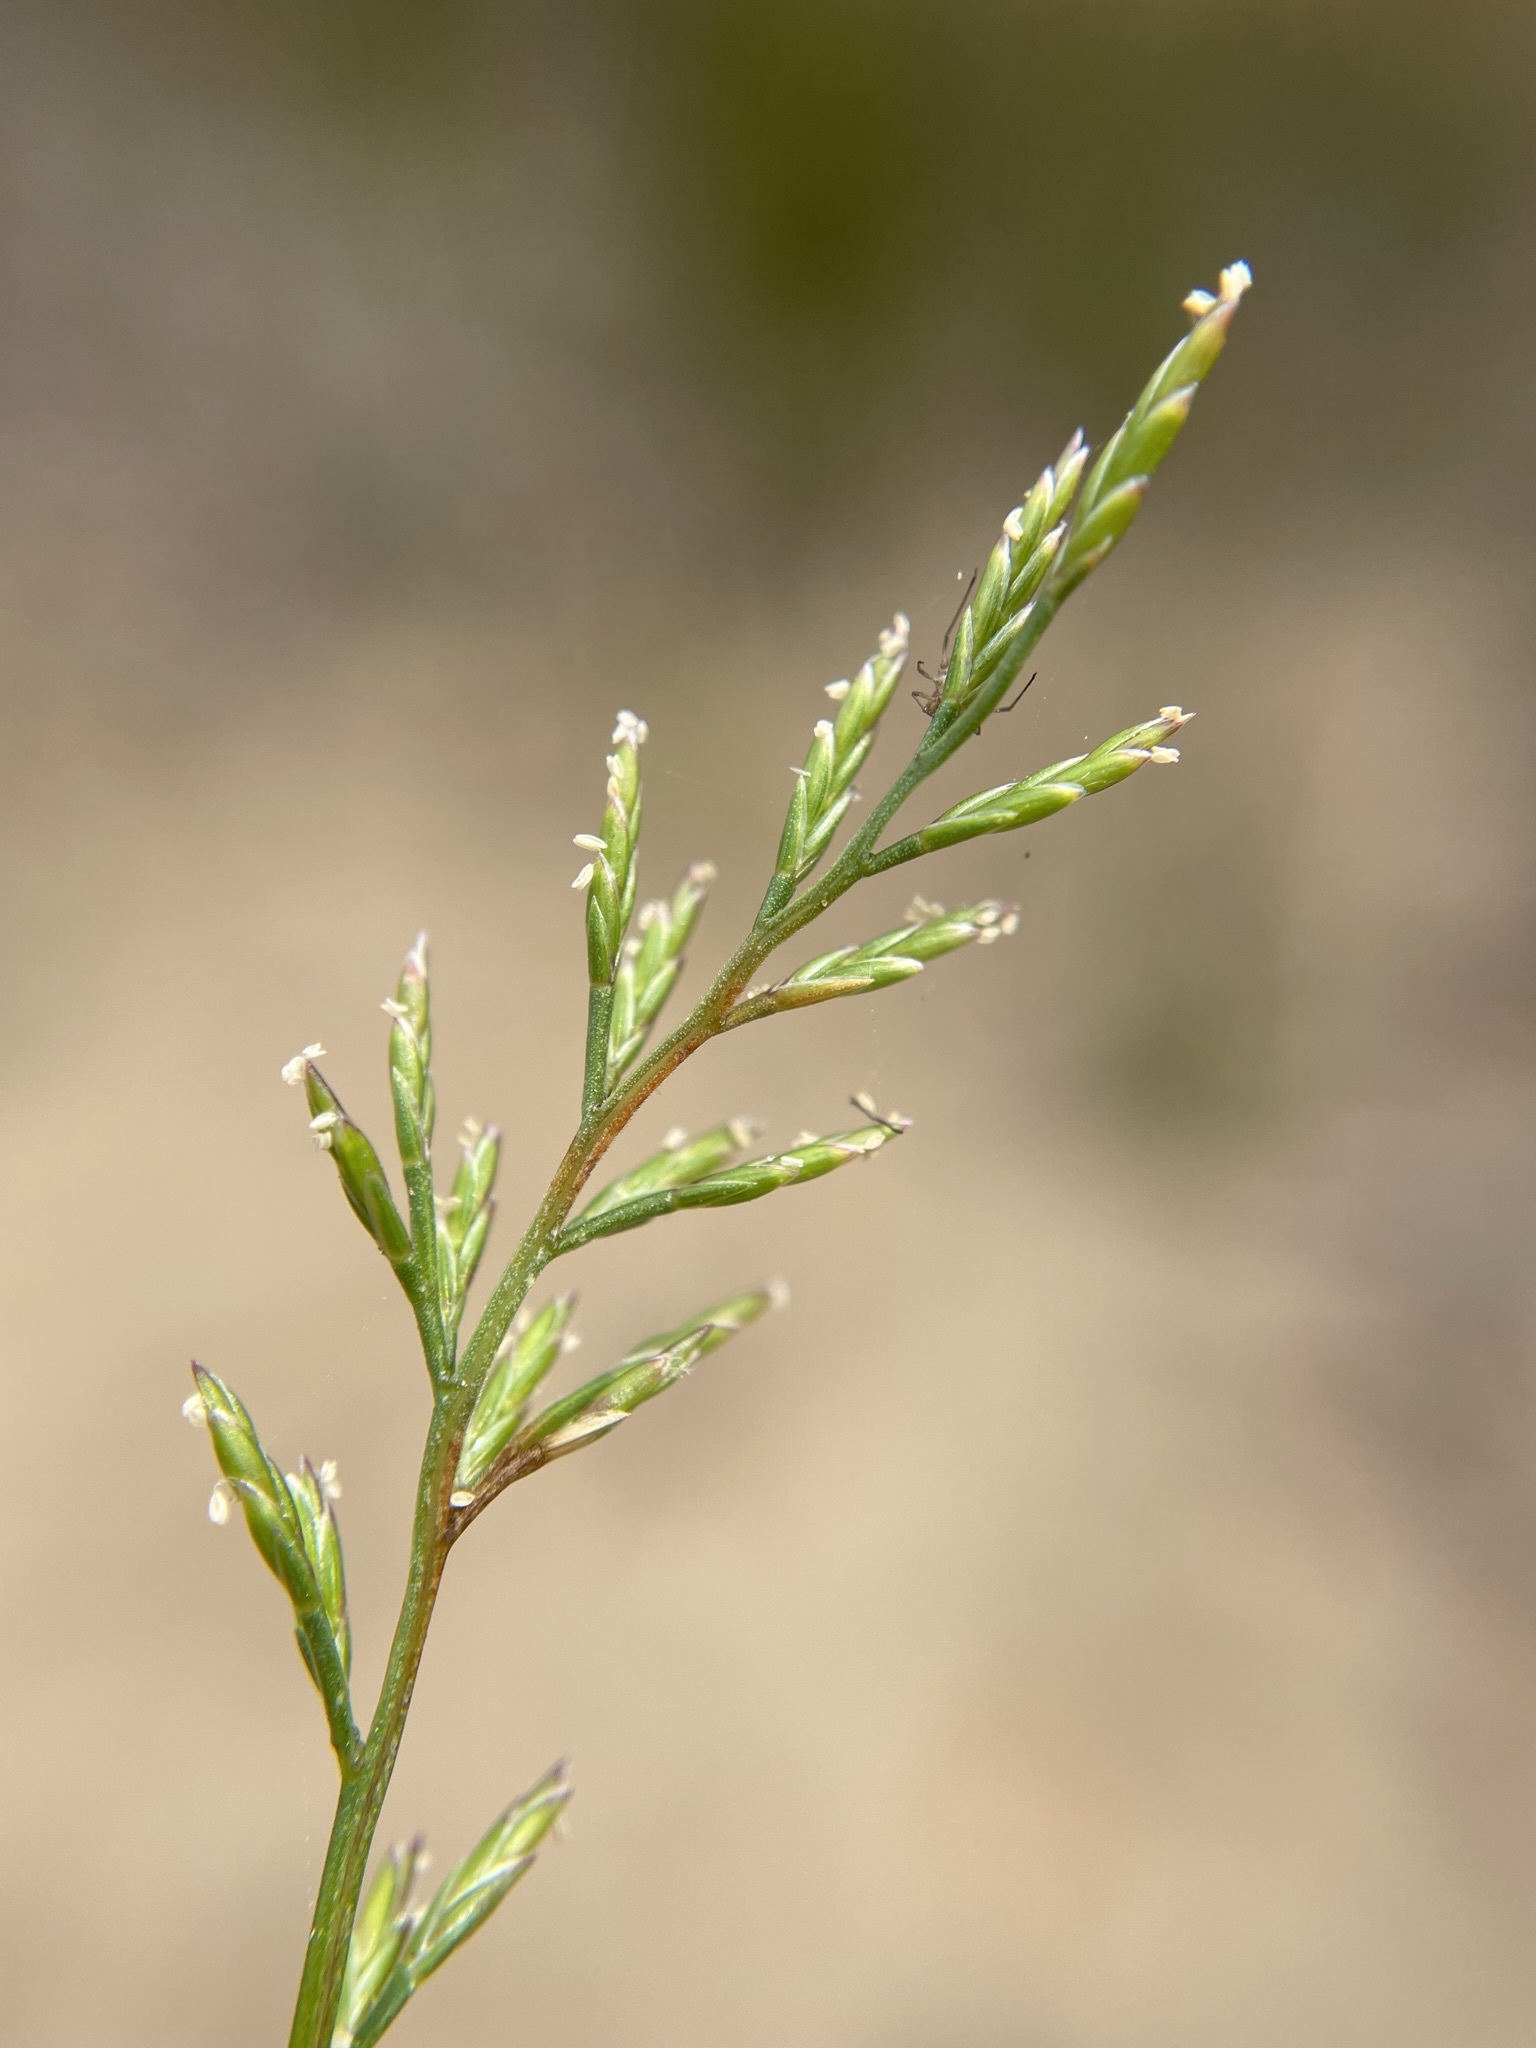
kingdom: Plantae
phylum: Tracheophyta
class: Liliopsida
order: Poales
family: Poaceae
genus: Catapodium
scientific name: Catapodium rigidum
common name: Fern-grass
